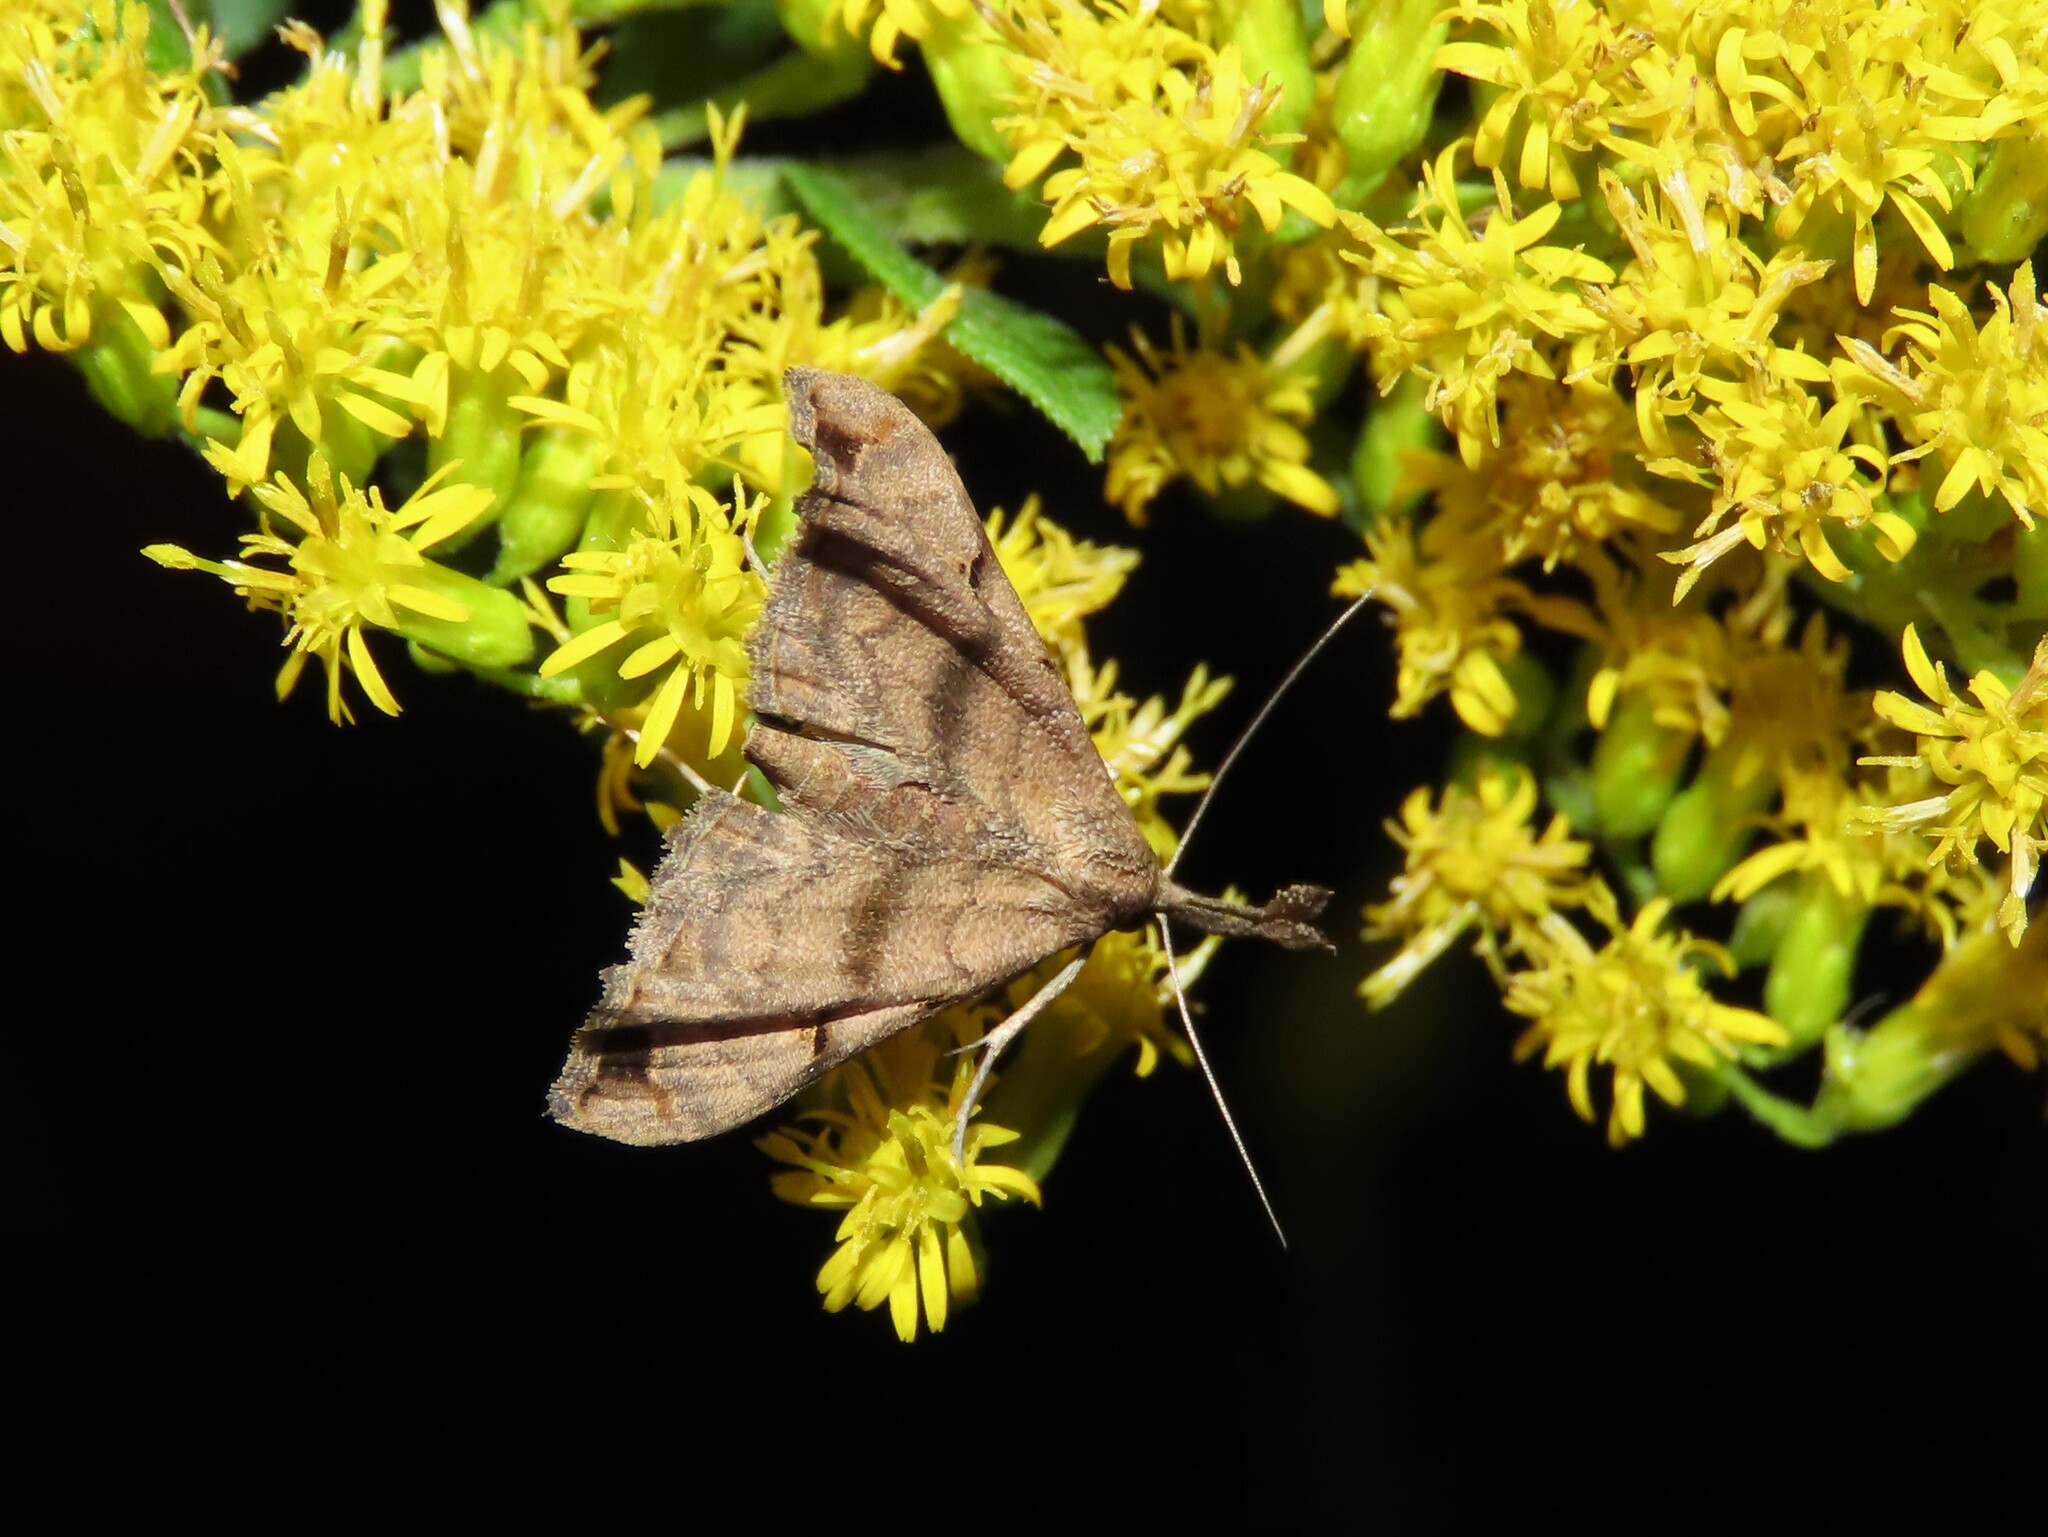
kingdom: Animalia
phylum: Arthropoda
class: Insecta
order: Lepidoptera
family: Erebidae
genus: Palthis
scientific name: Palthis asopialis
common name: Faint-spotted palthis moth
